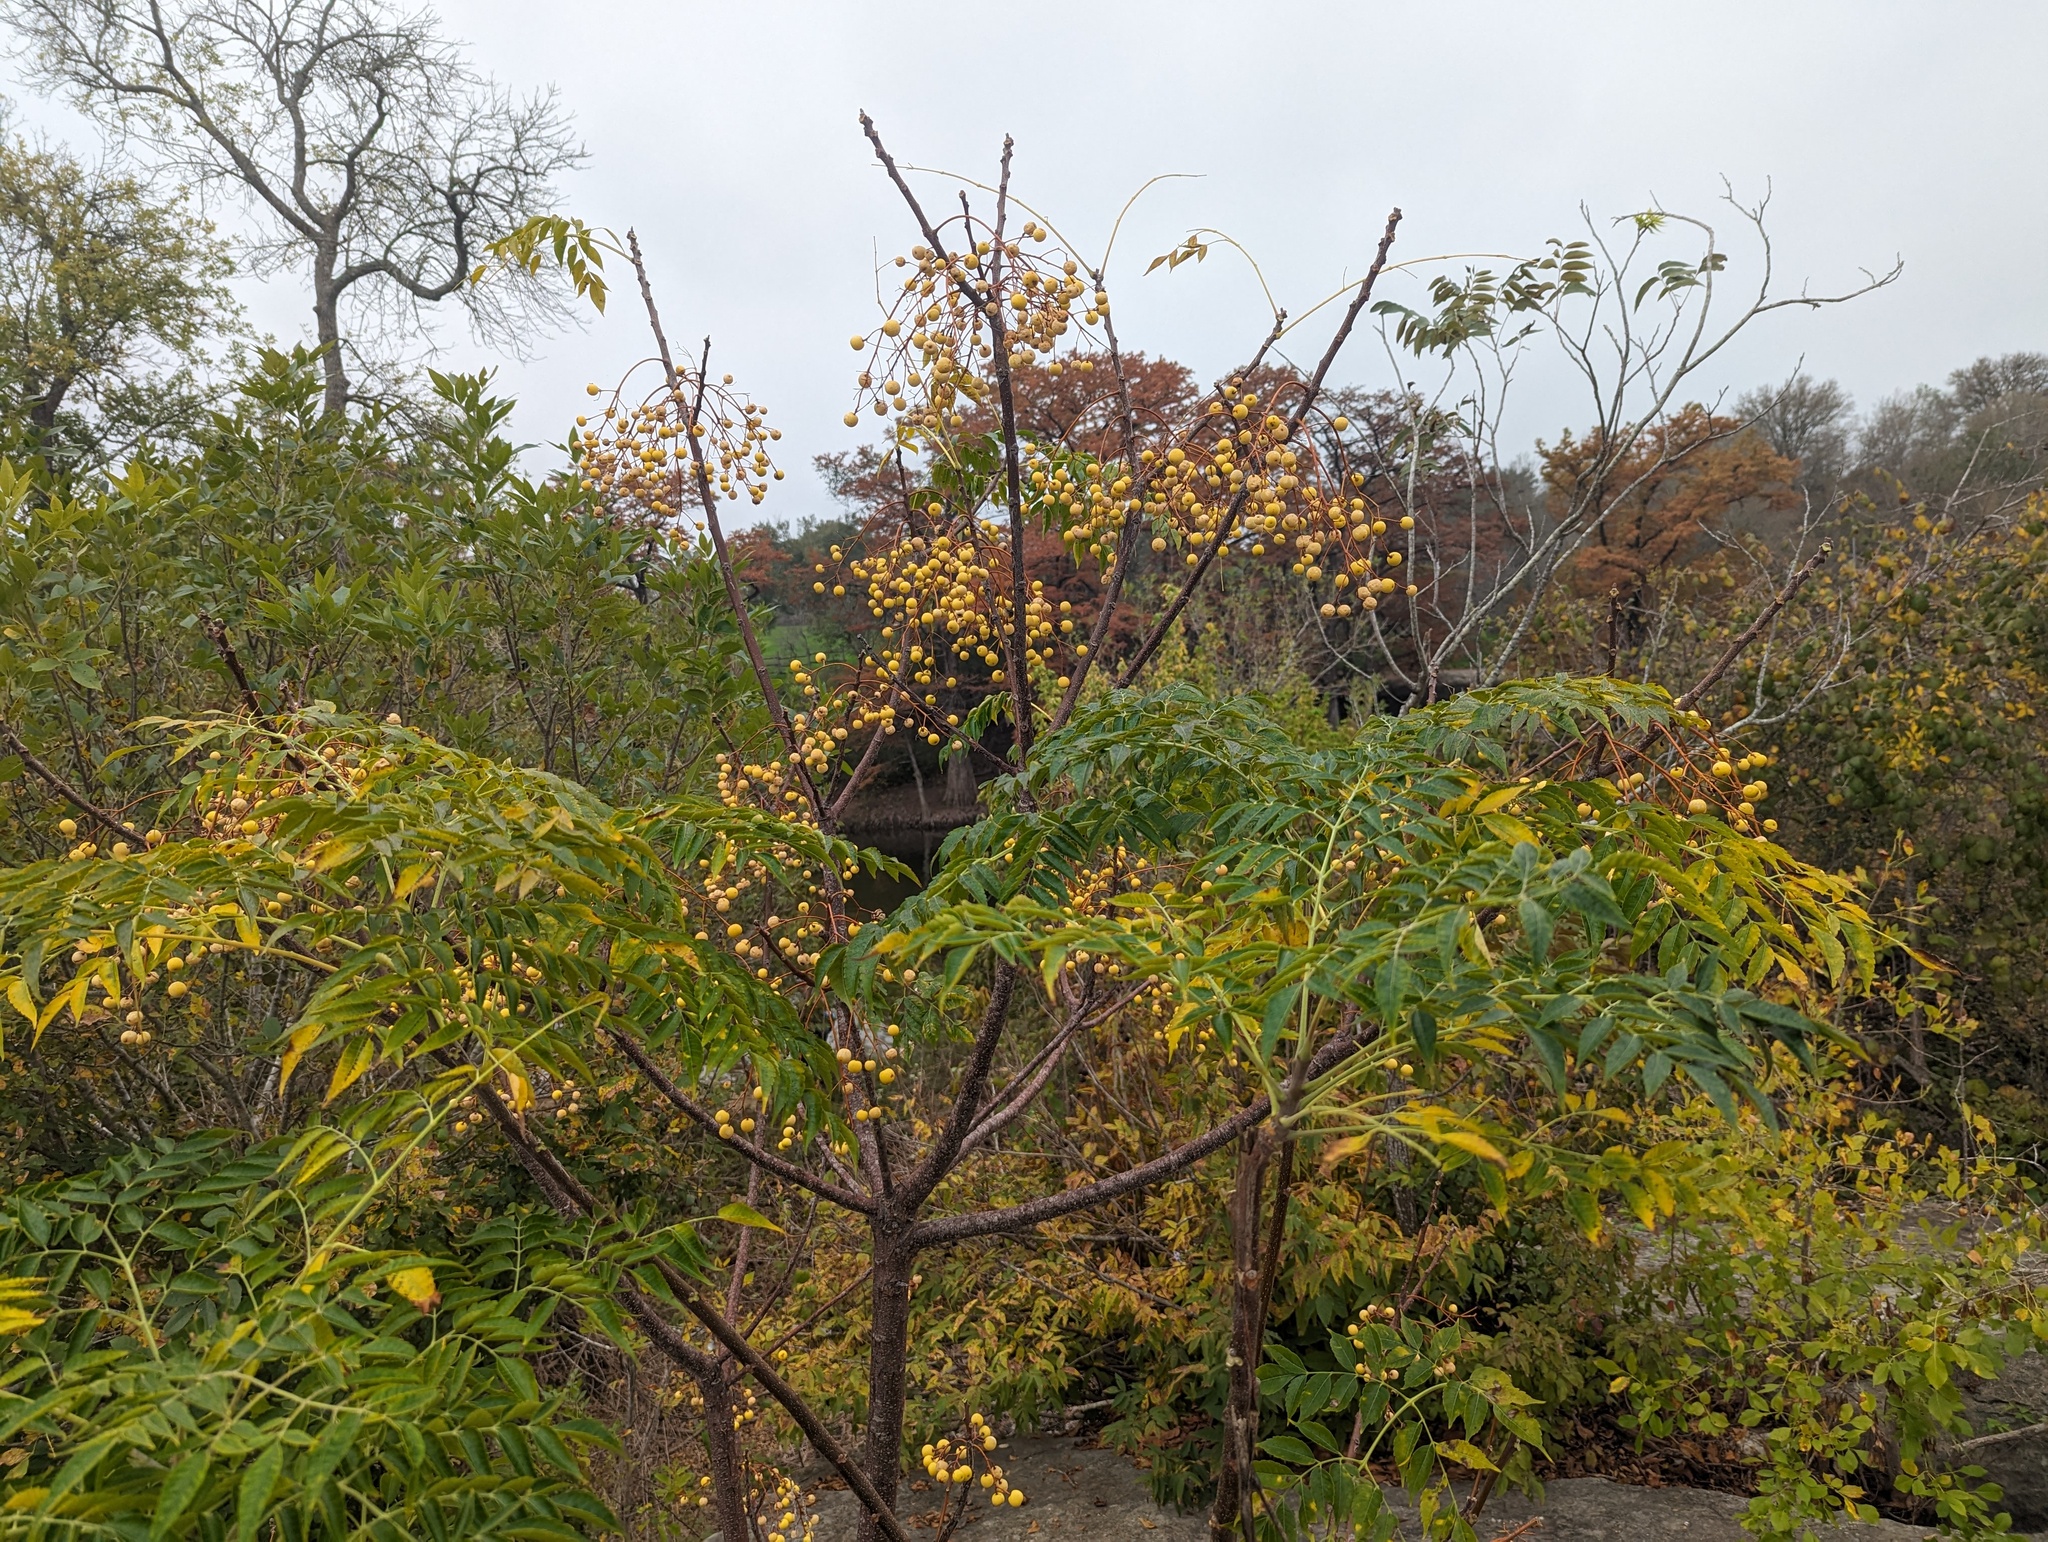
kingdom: Plantae
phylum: Tracheophyta
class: Magnoliopsida
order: Sapindales
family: Meliaceae
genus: Melia
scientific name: Melia azedarach
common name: Chinaberrytree
